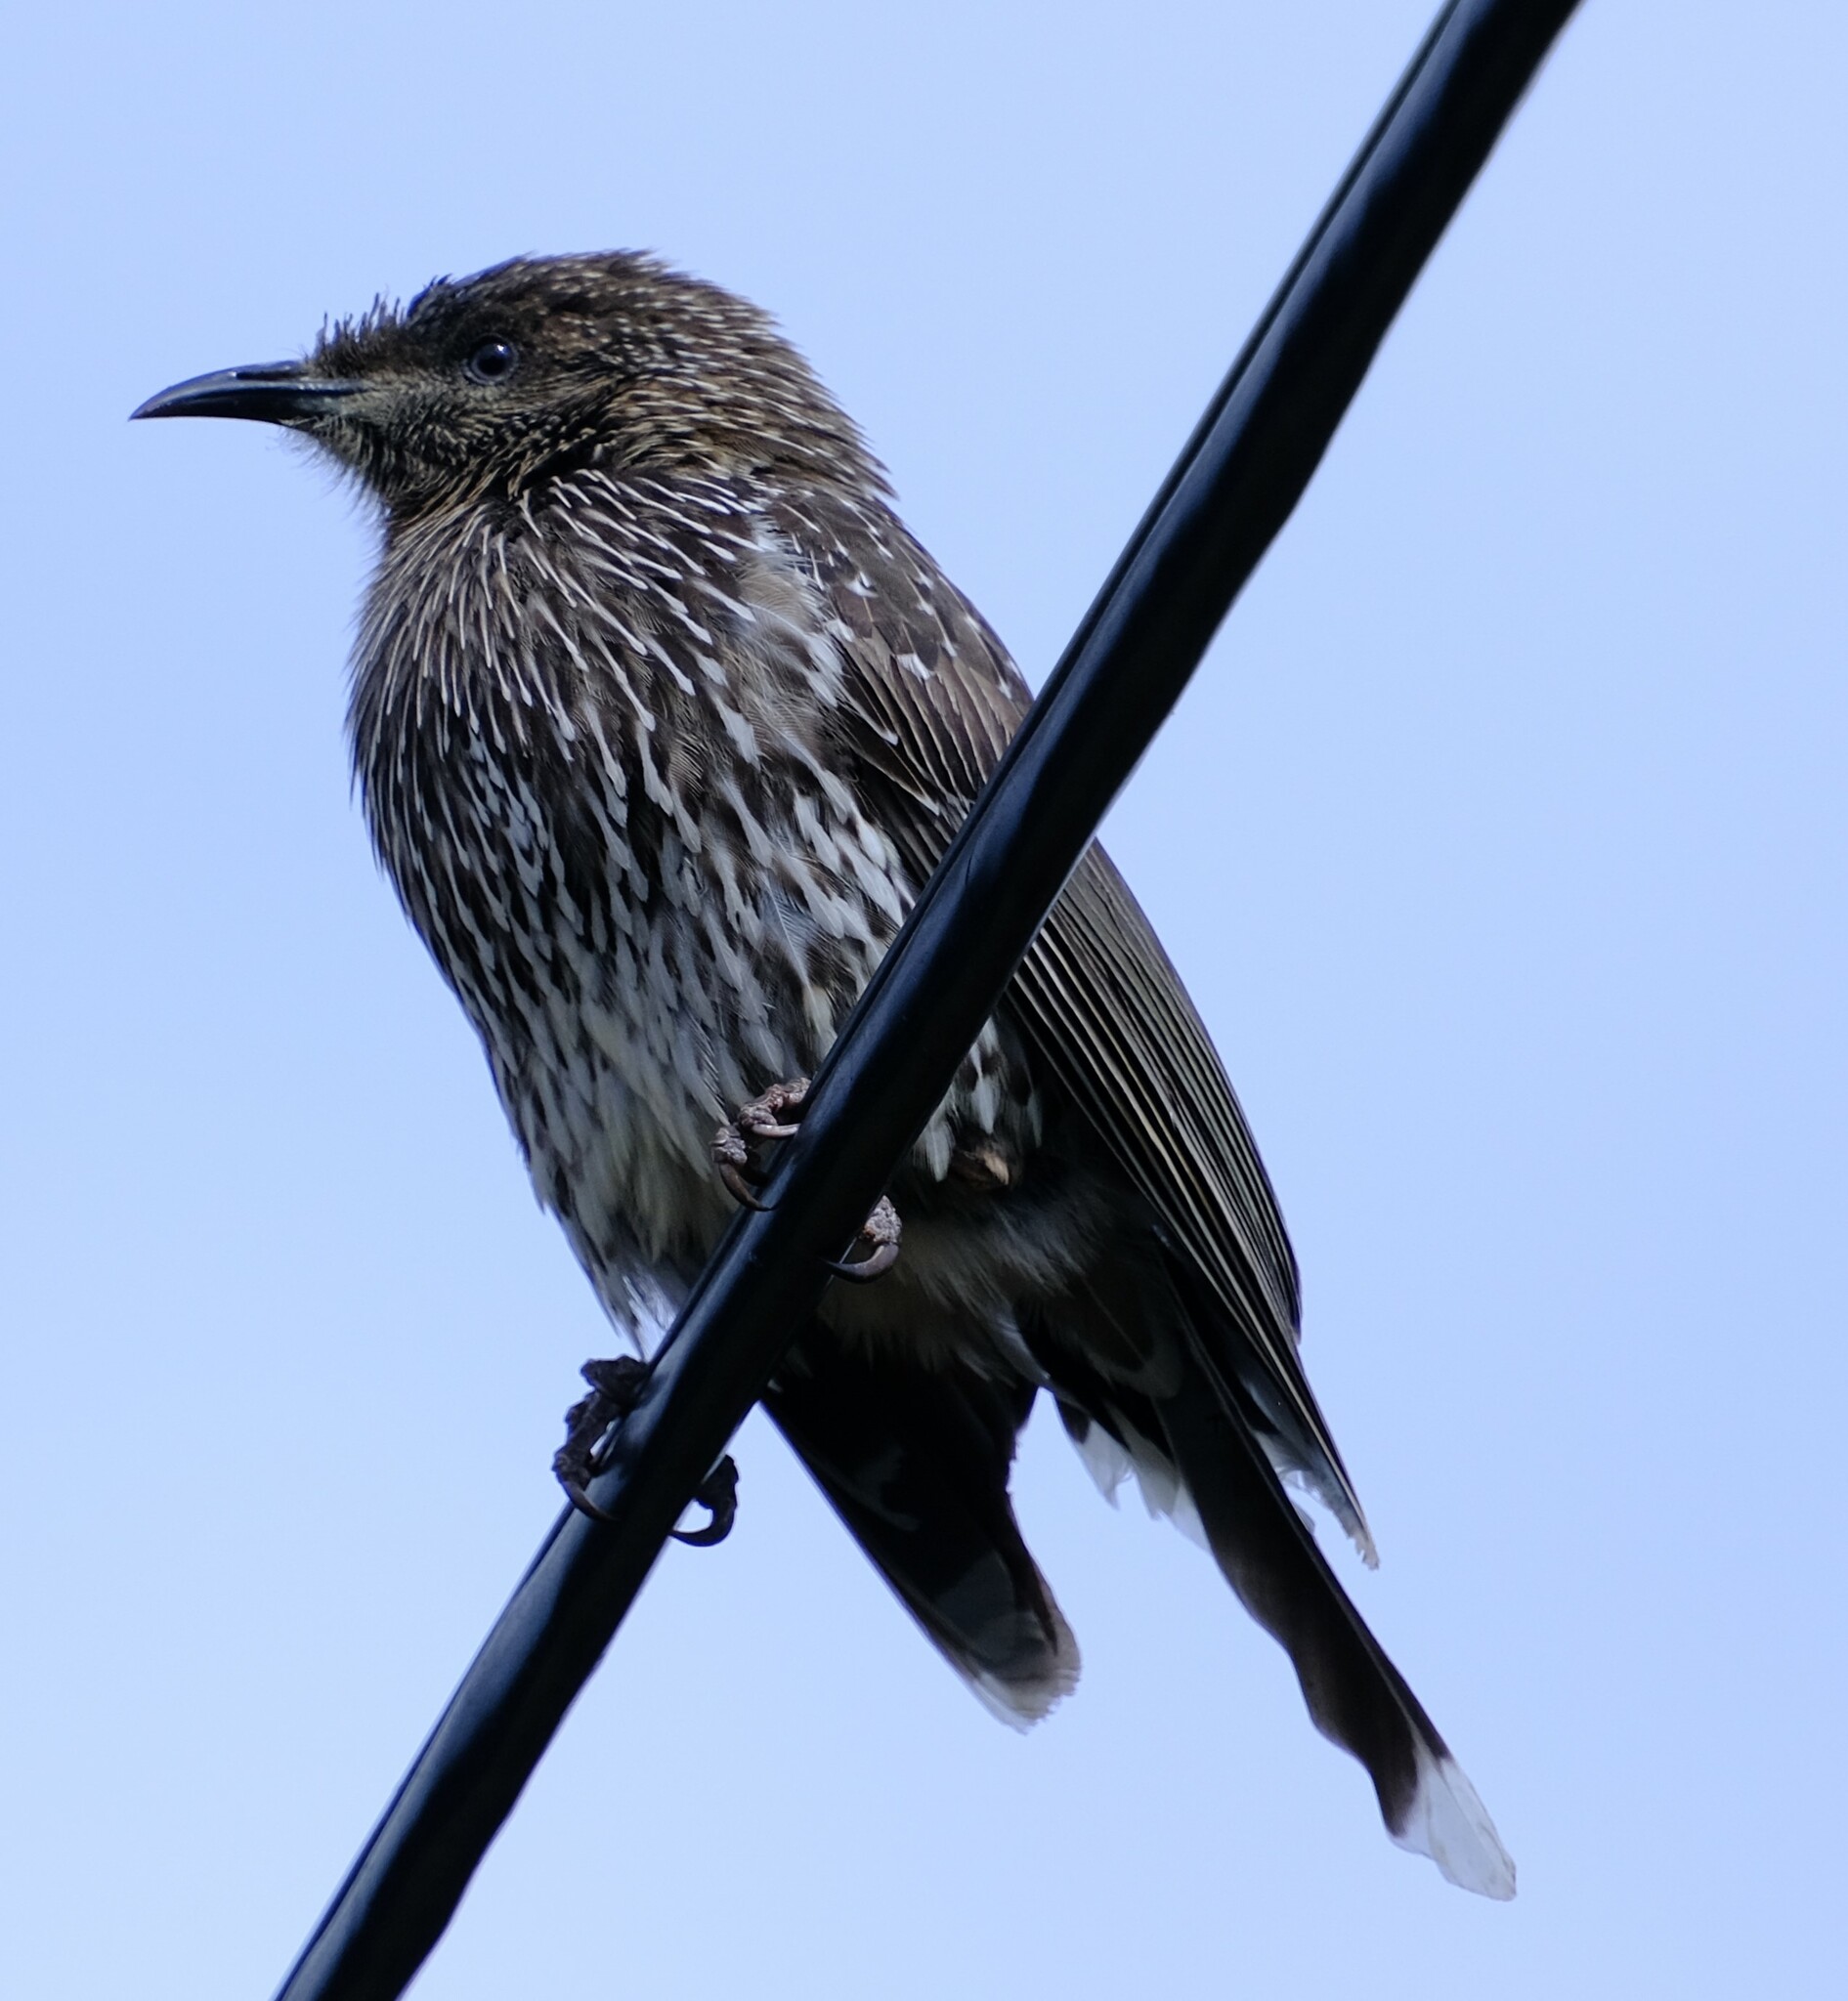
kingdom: Animalia
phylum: Chordata
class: Aves
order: Passeriformes
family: Meliphagidae
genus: Anthochaera
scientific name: Anthochaera chrysoptera
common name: Little wattlebird
